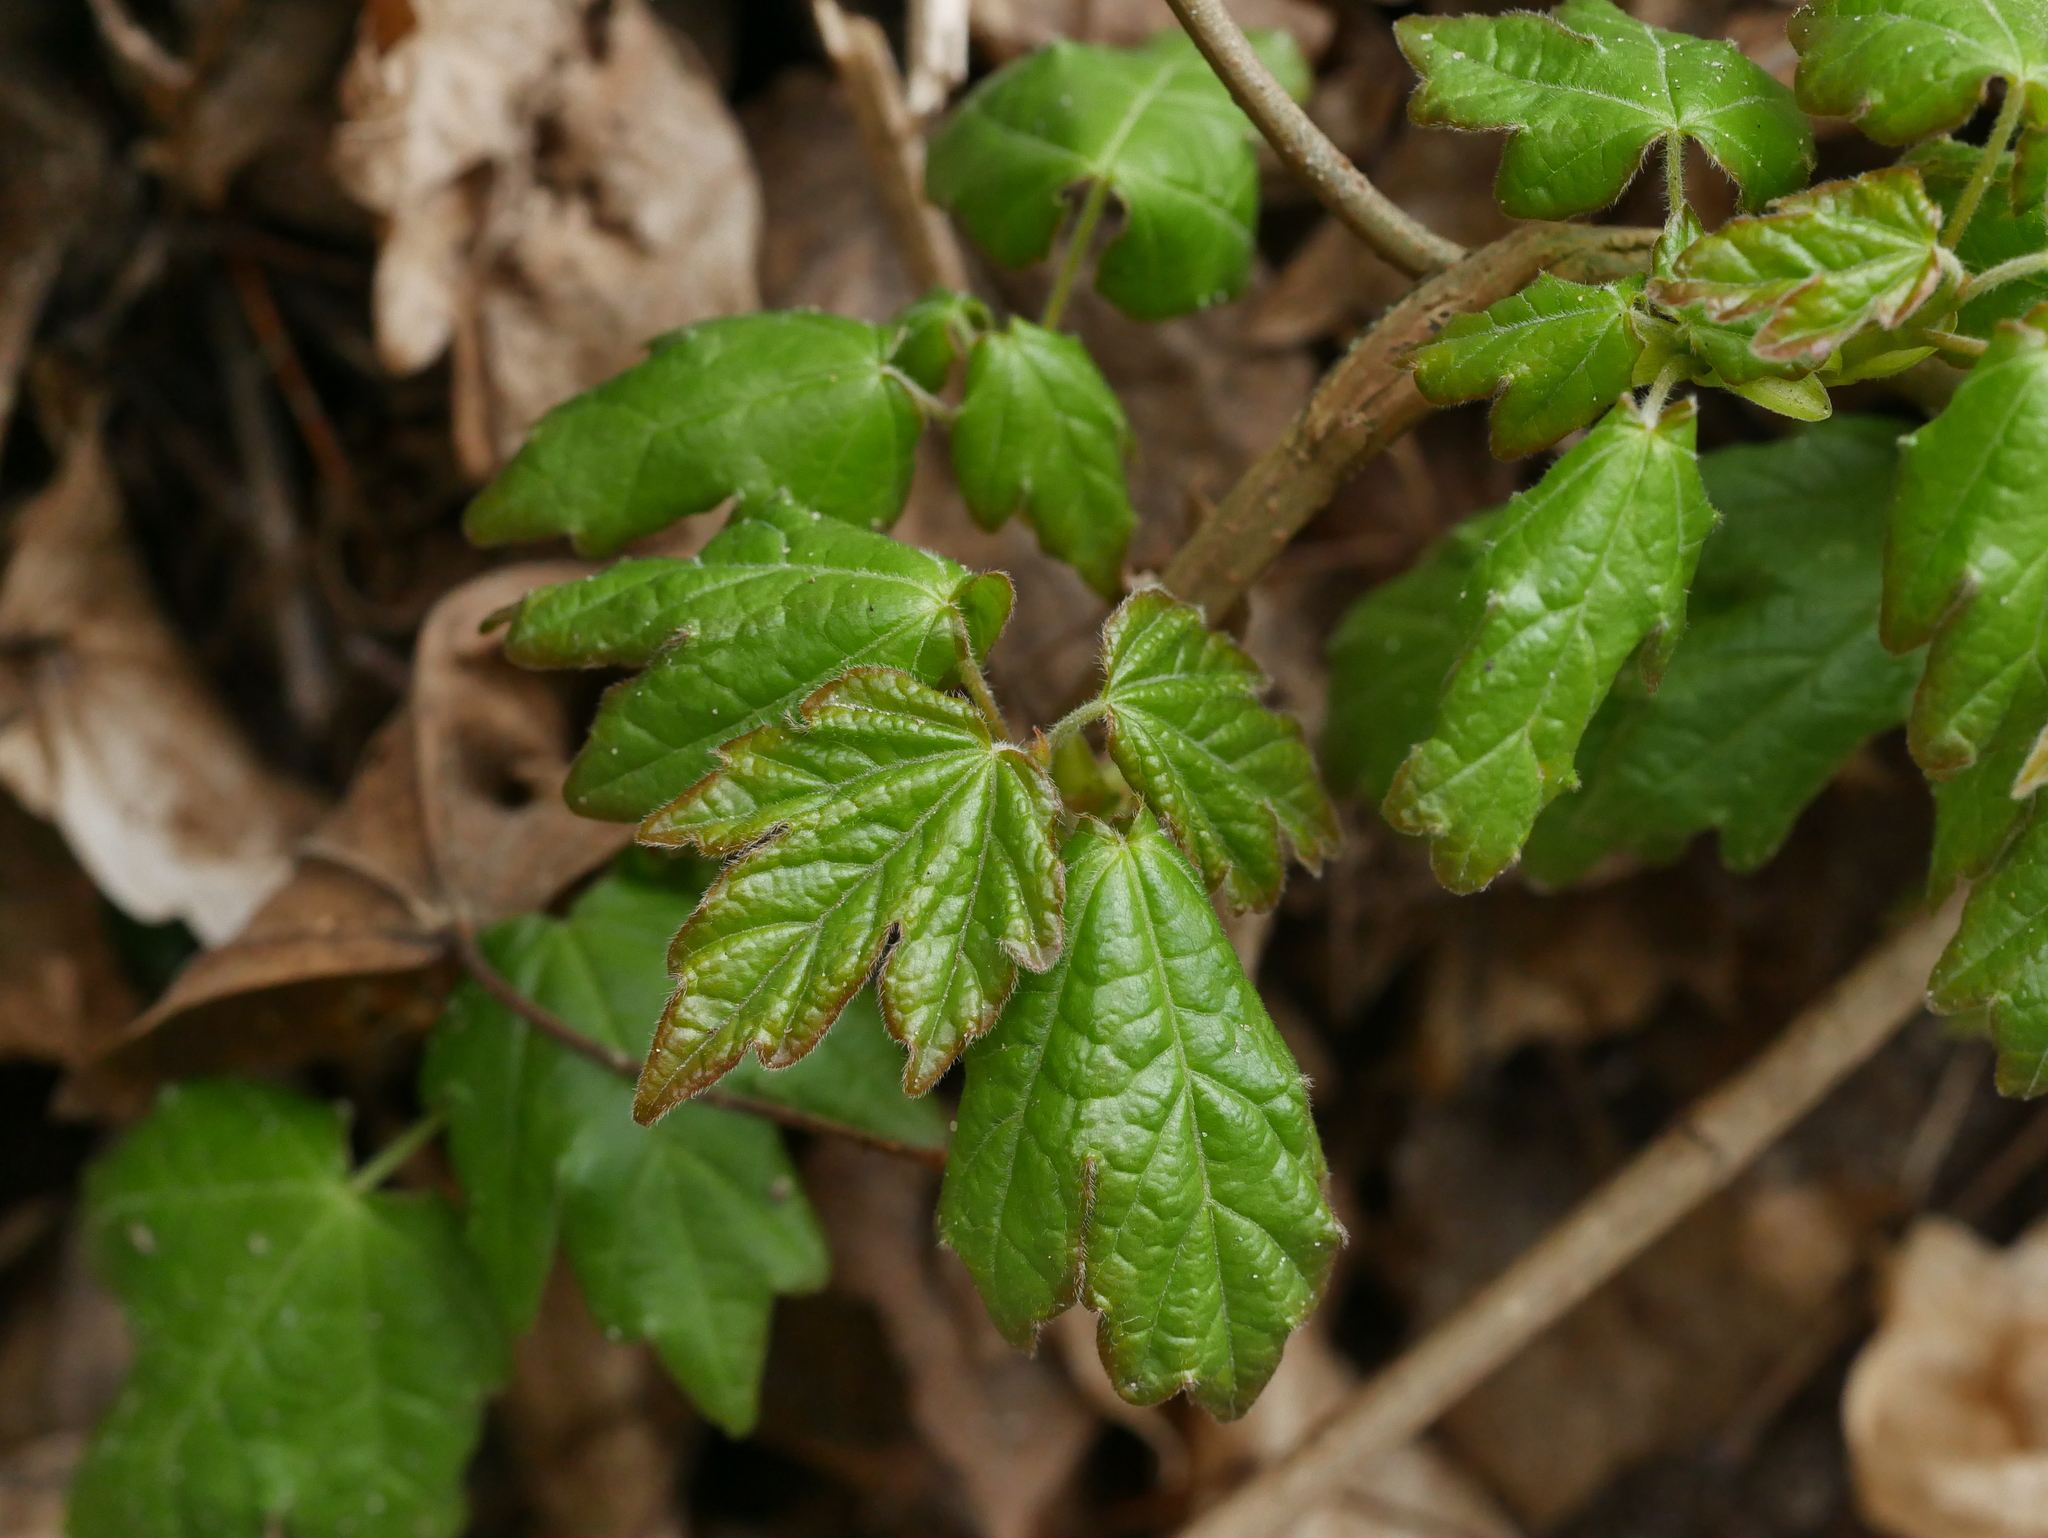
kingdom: Plantae
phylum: Tracheophyta
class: Magnoliopsida
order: Sapindales
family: Sapindaceae
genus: Acer
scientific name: Acer campestre
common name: Field maple
